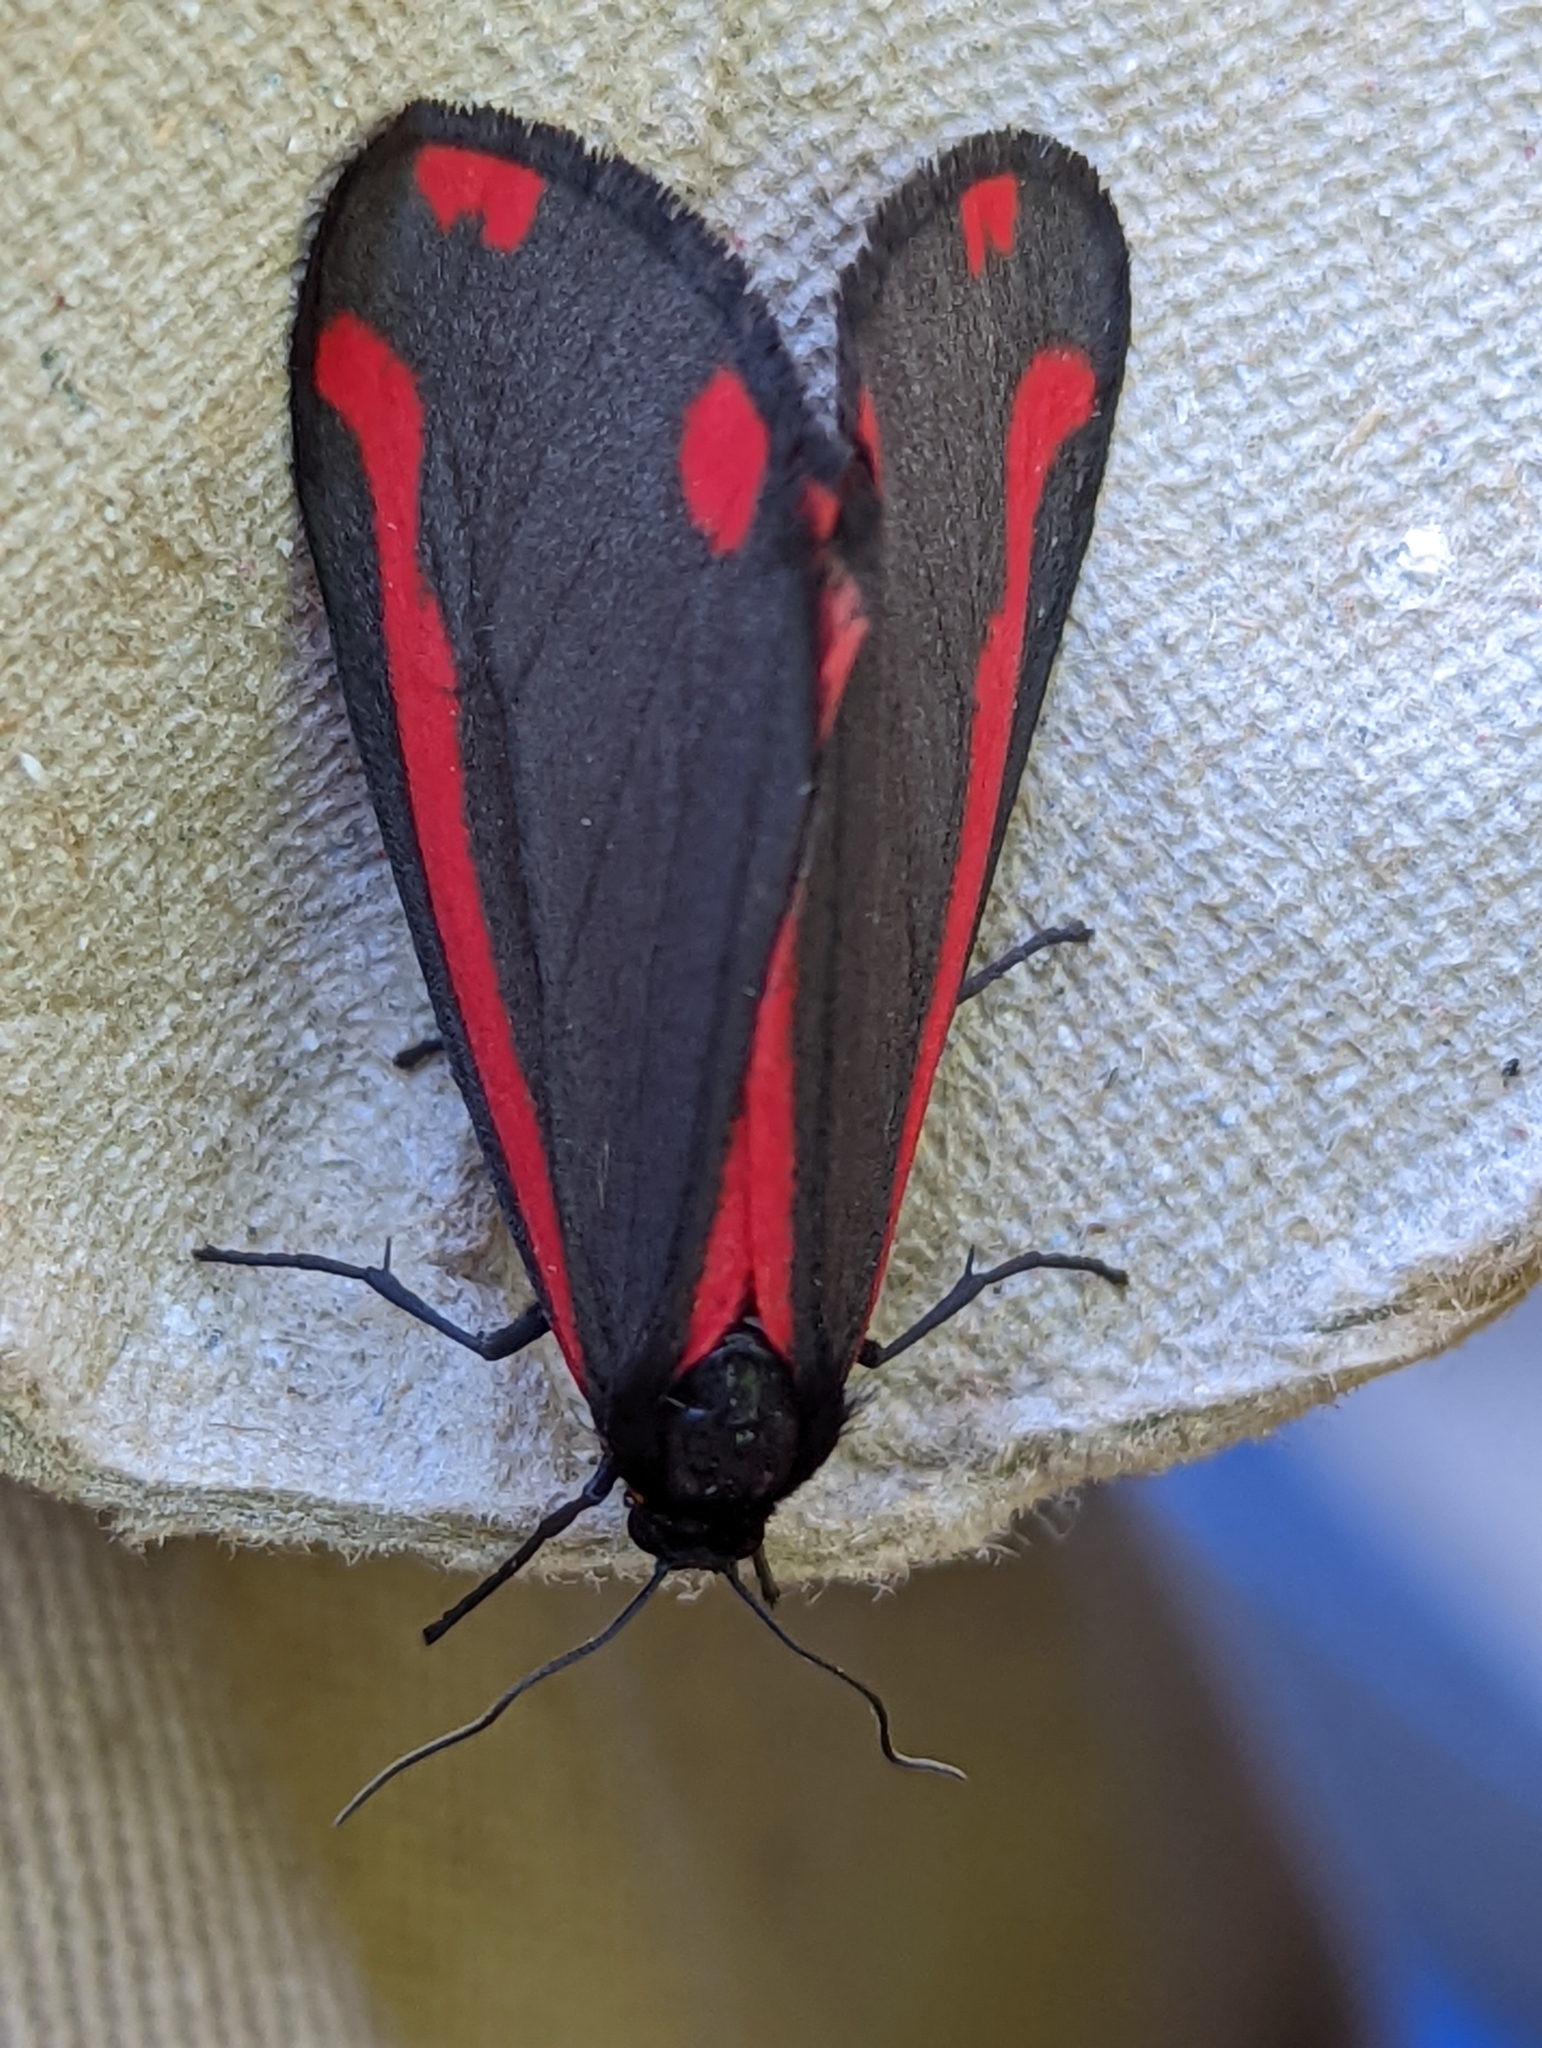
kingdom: Animalia
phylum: Arthropoda
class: Insecta
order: Lepidoptera
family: Erebidae
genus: Tyria
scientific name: Tyria jacobaeae
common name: Cinnabar
